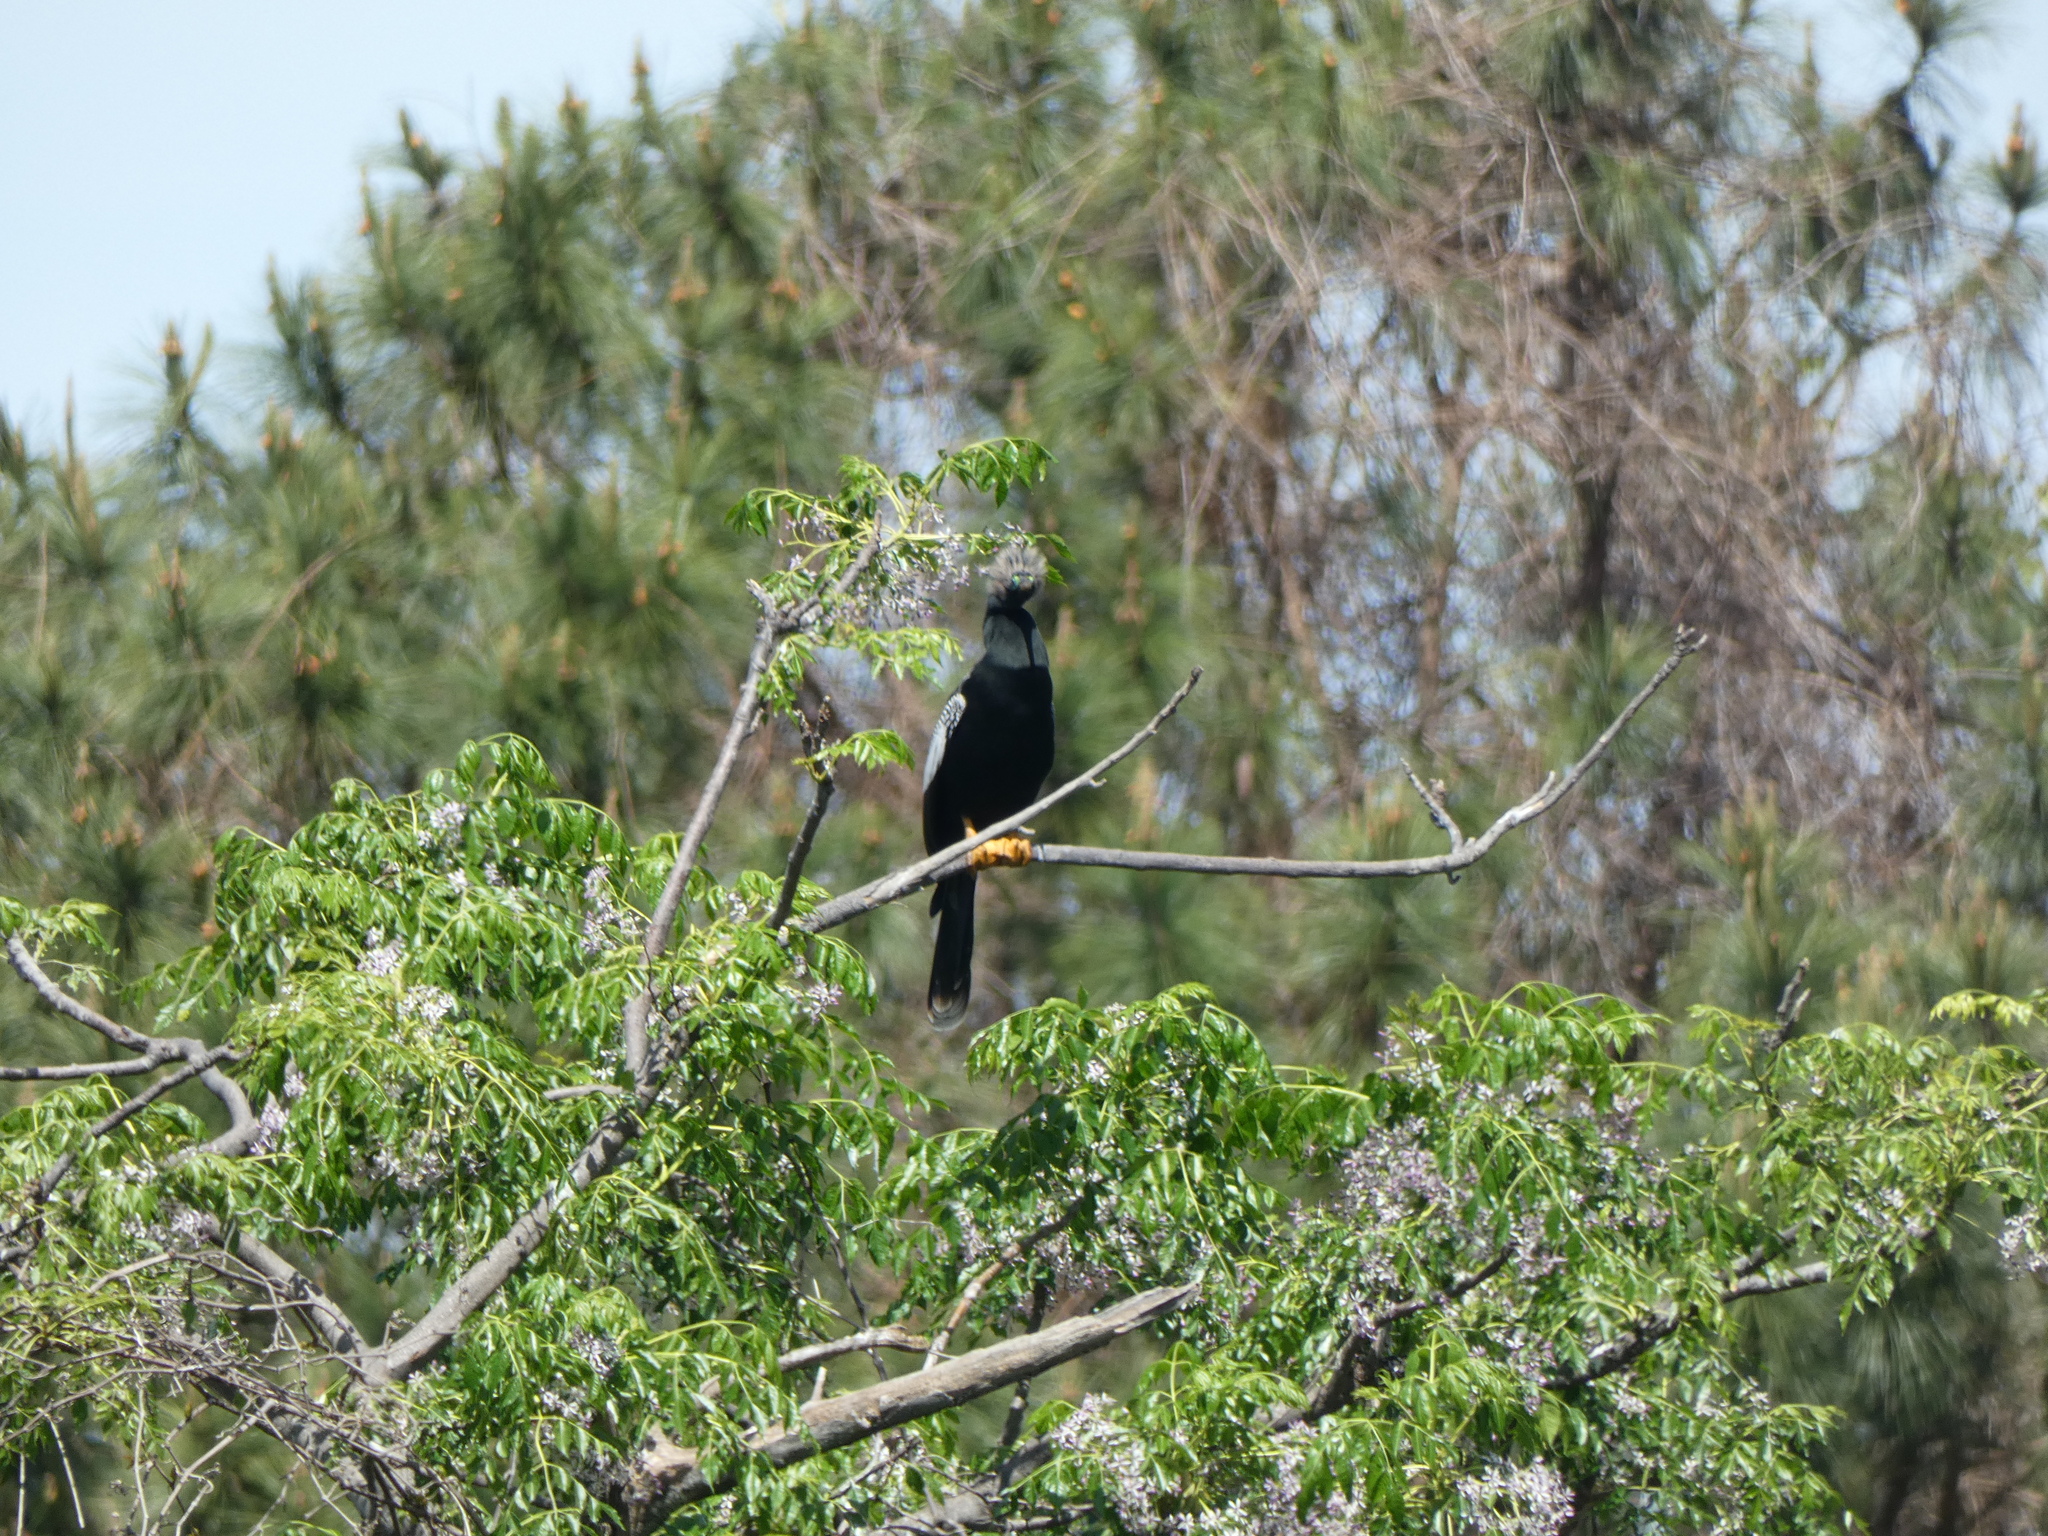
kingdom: Animalia
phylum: Chordata
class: Aves
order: Suliformes
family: Anhingidae
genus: Anhinga
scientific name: Anhinga anhinga
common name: Anhinga
